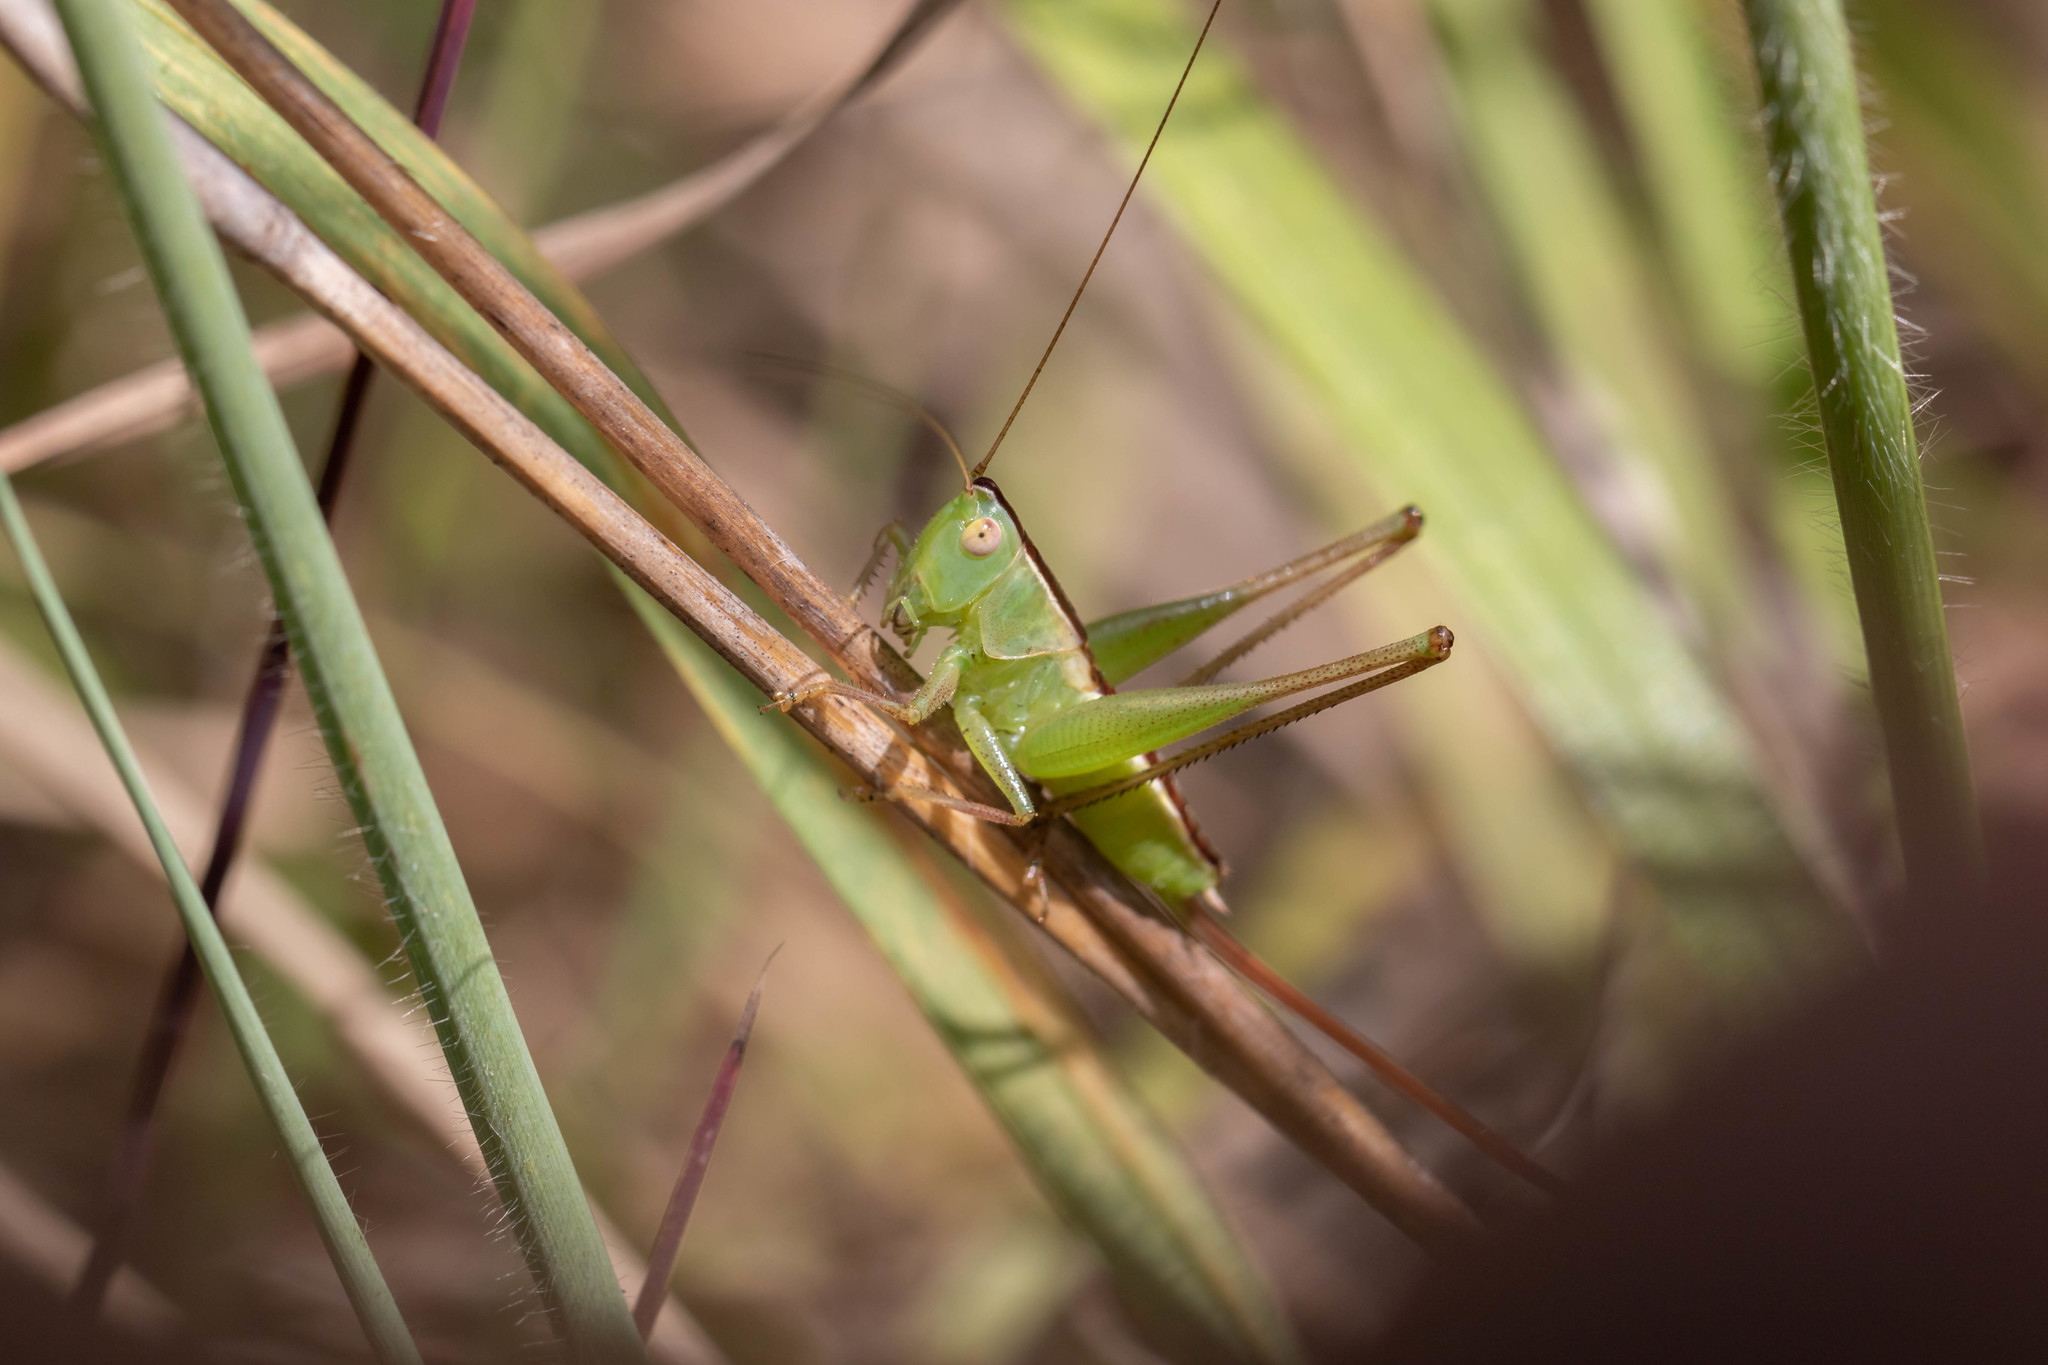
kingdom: Animalia
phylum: Arthropoda
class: Insecta
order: Orthoptera
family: Tettigoniidae
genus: Conocephalus
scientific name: Conocephalus strictus
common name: Straight-lanced katydid
